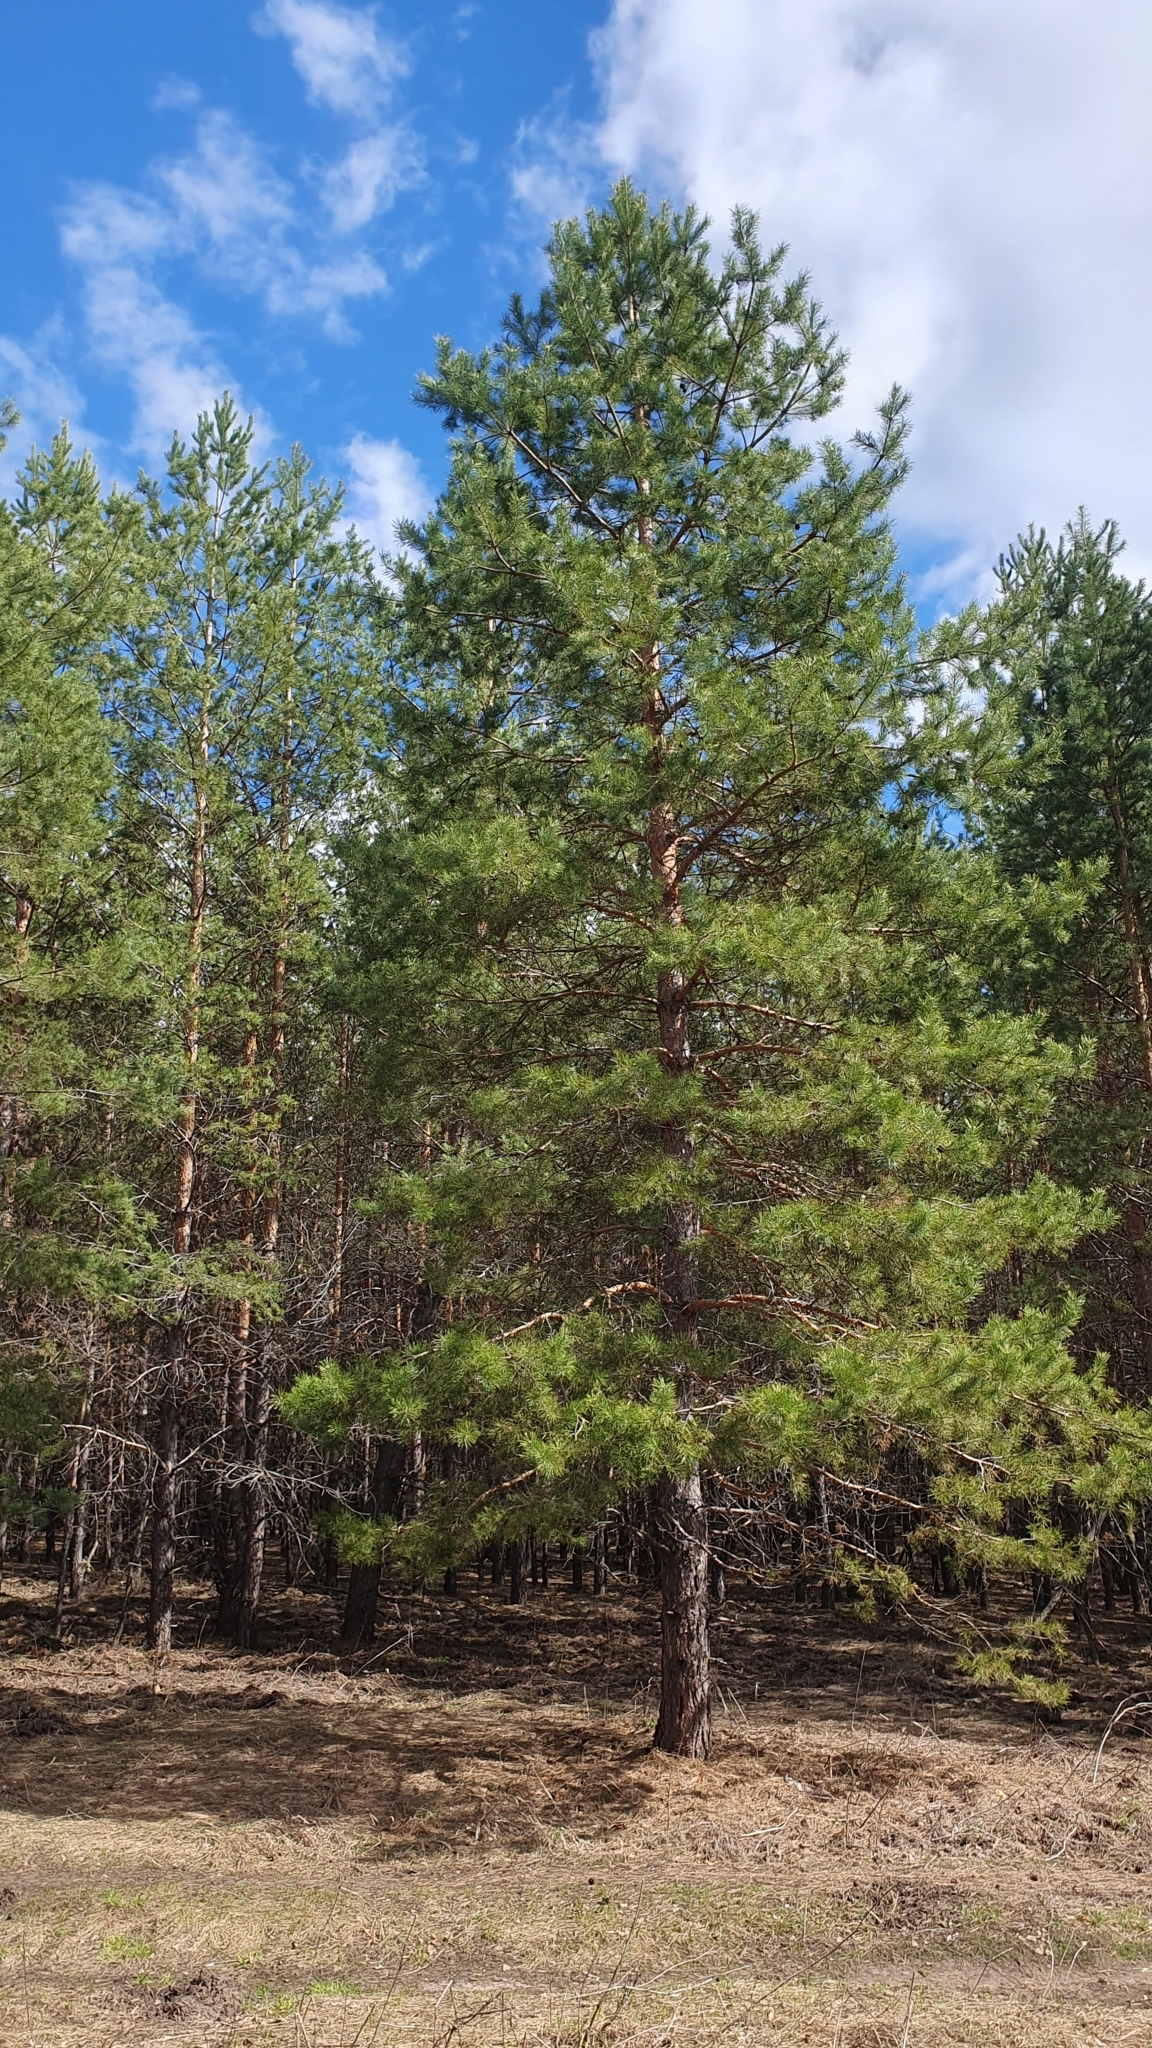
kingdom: Plantae
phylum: Tracheophyta
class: Pinopsida
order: Pinales
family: Pinaceae
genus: Pinus
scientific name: Pinus sylvestris
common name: Scots pine
